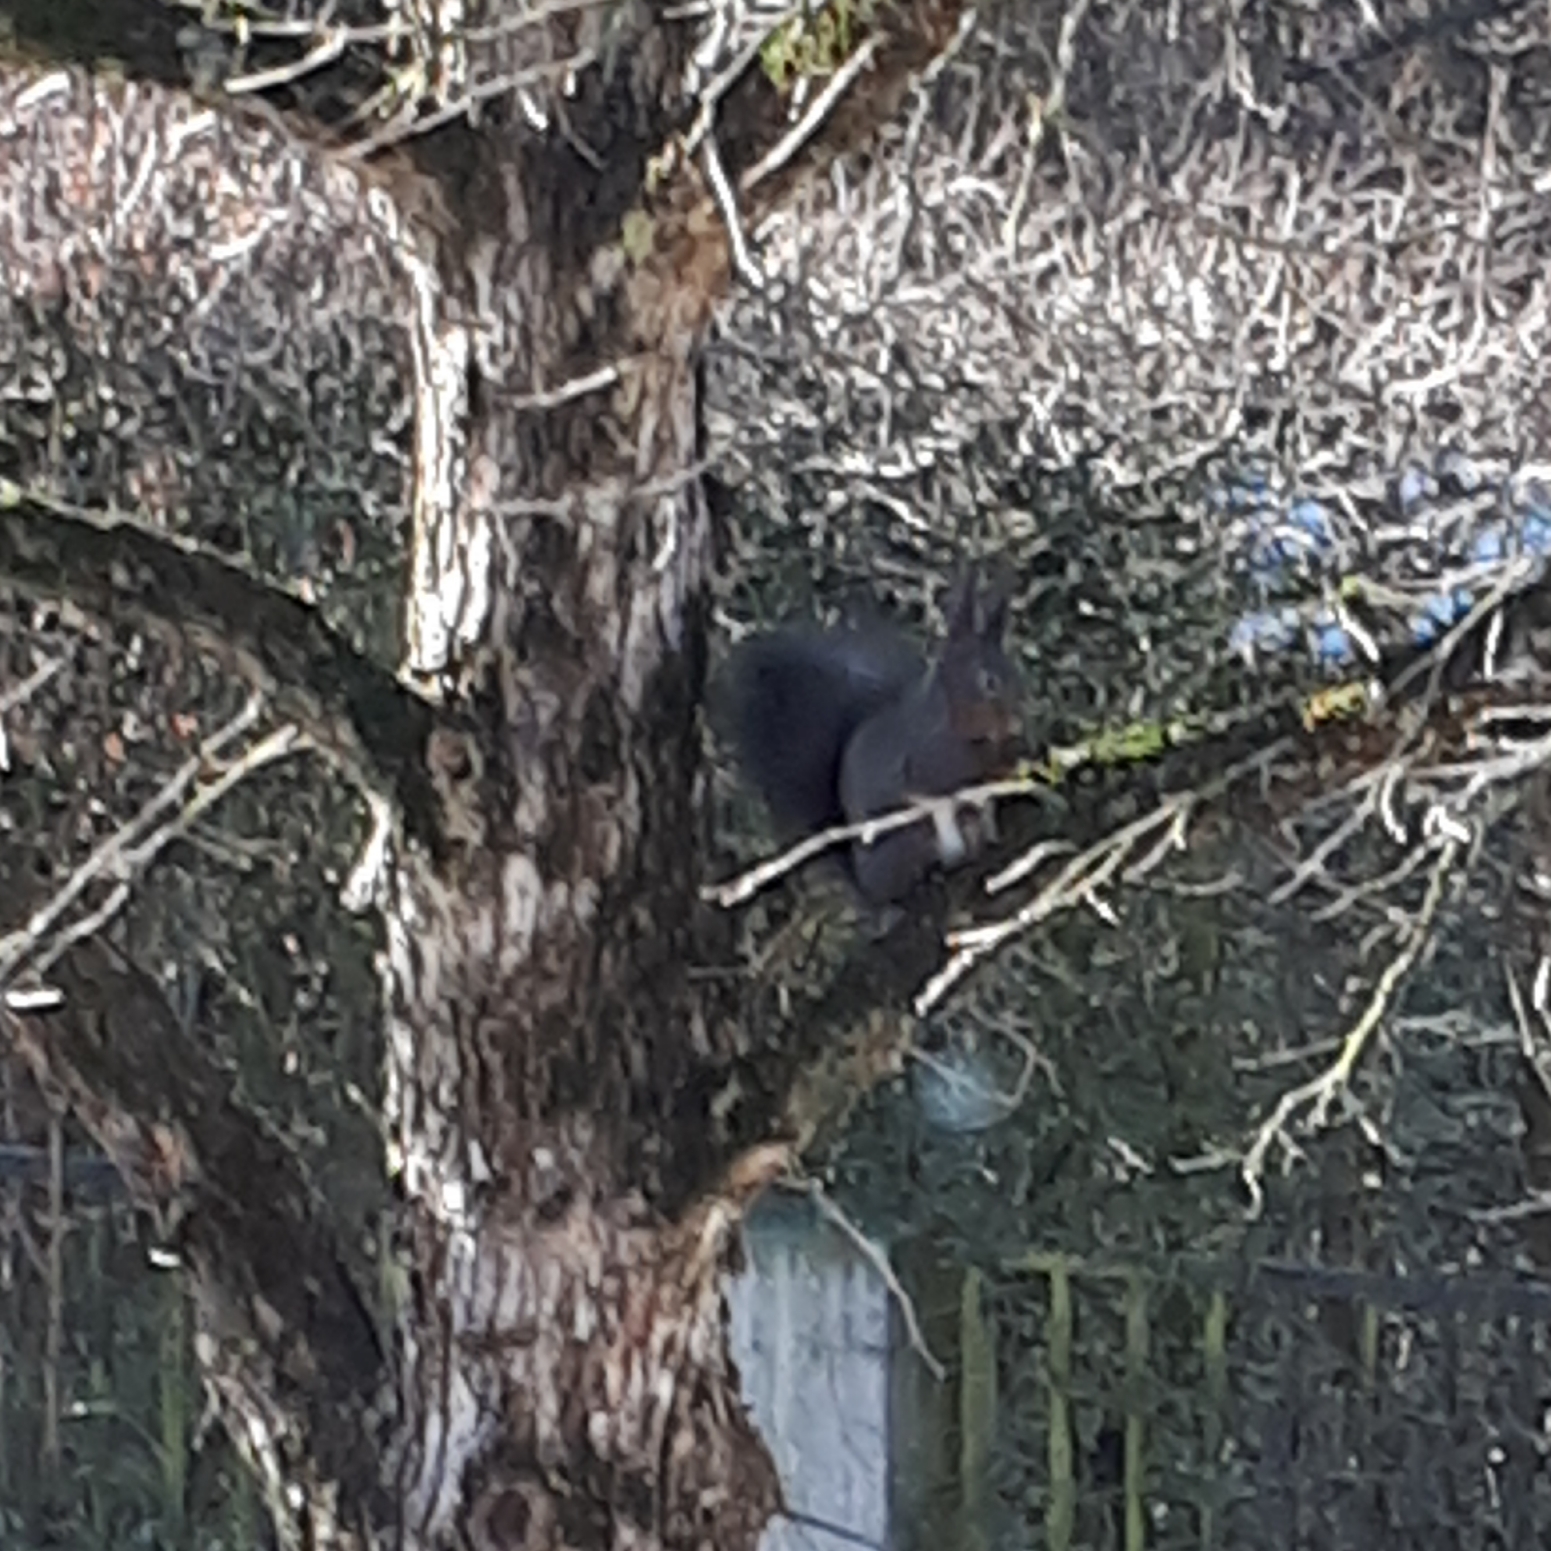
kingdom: Animalia
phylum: Chordata
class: Mammalia
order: Rodentia
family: Sciuridae
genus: Sciurus
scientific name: Sciurus vulgaris
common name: Eurasian red squirrel
